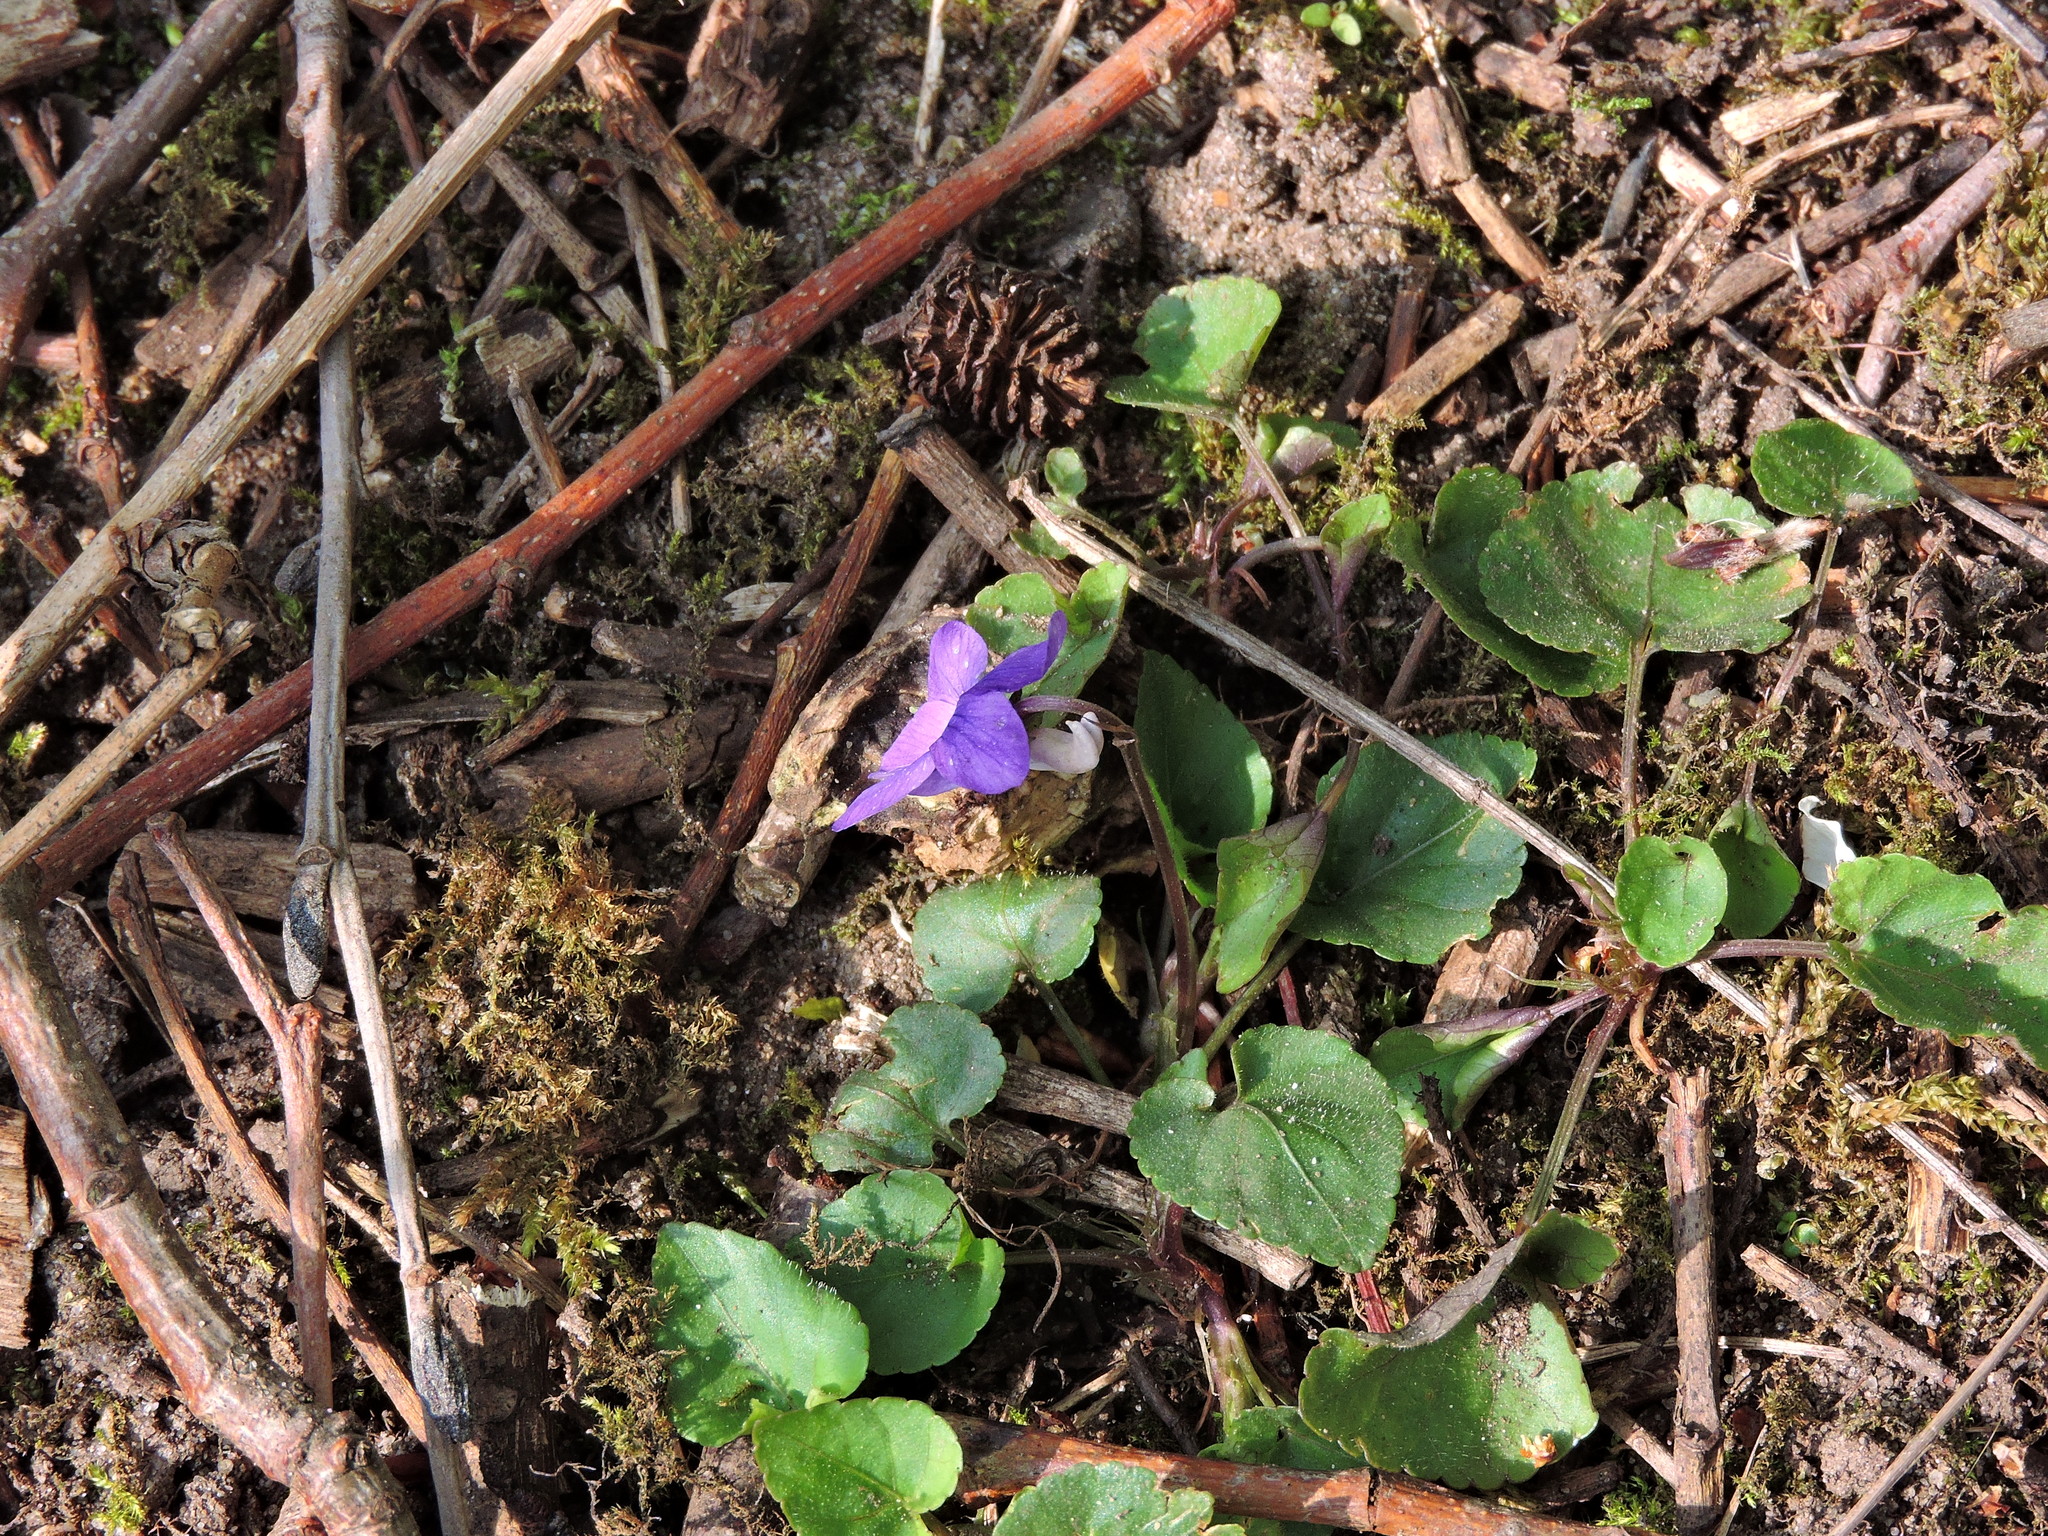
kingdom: Plantae
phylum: Tracheophyta
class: Magnoliopsida
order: Malpighiales
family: Violaceae
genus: Viola
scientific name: Viola riviniana
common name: Common dog-violet
